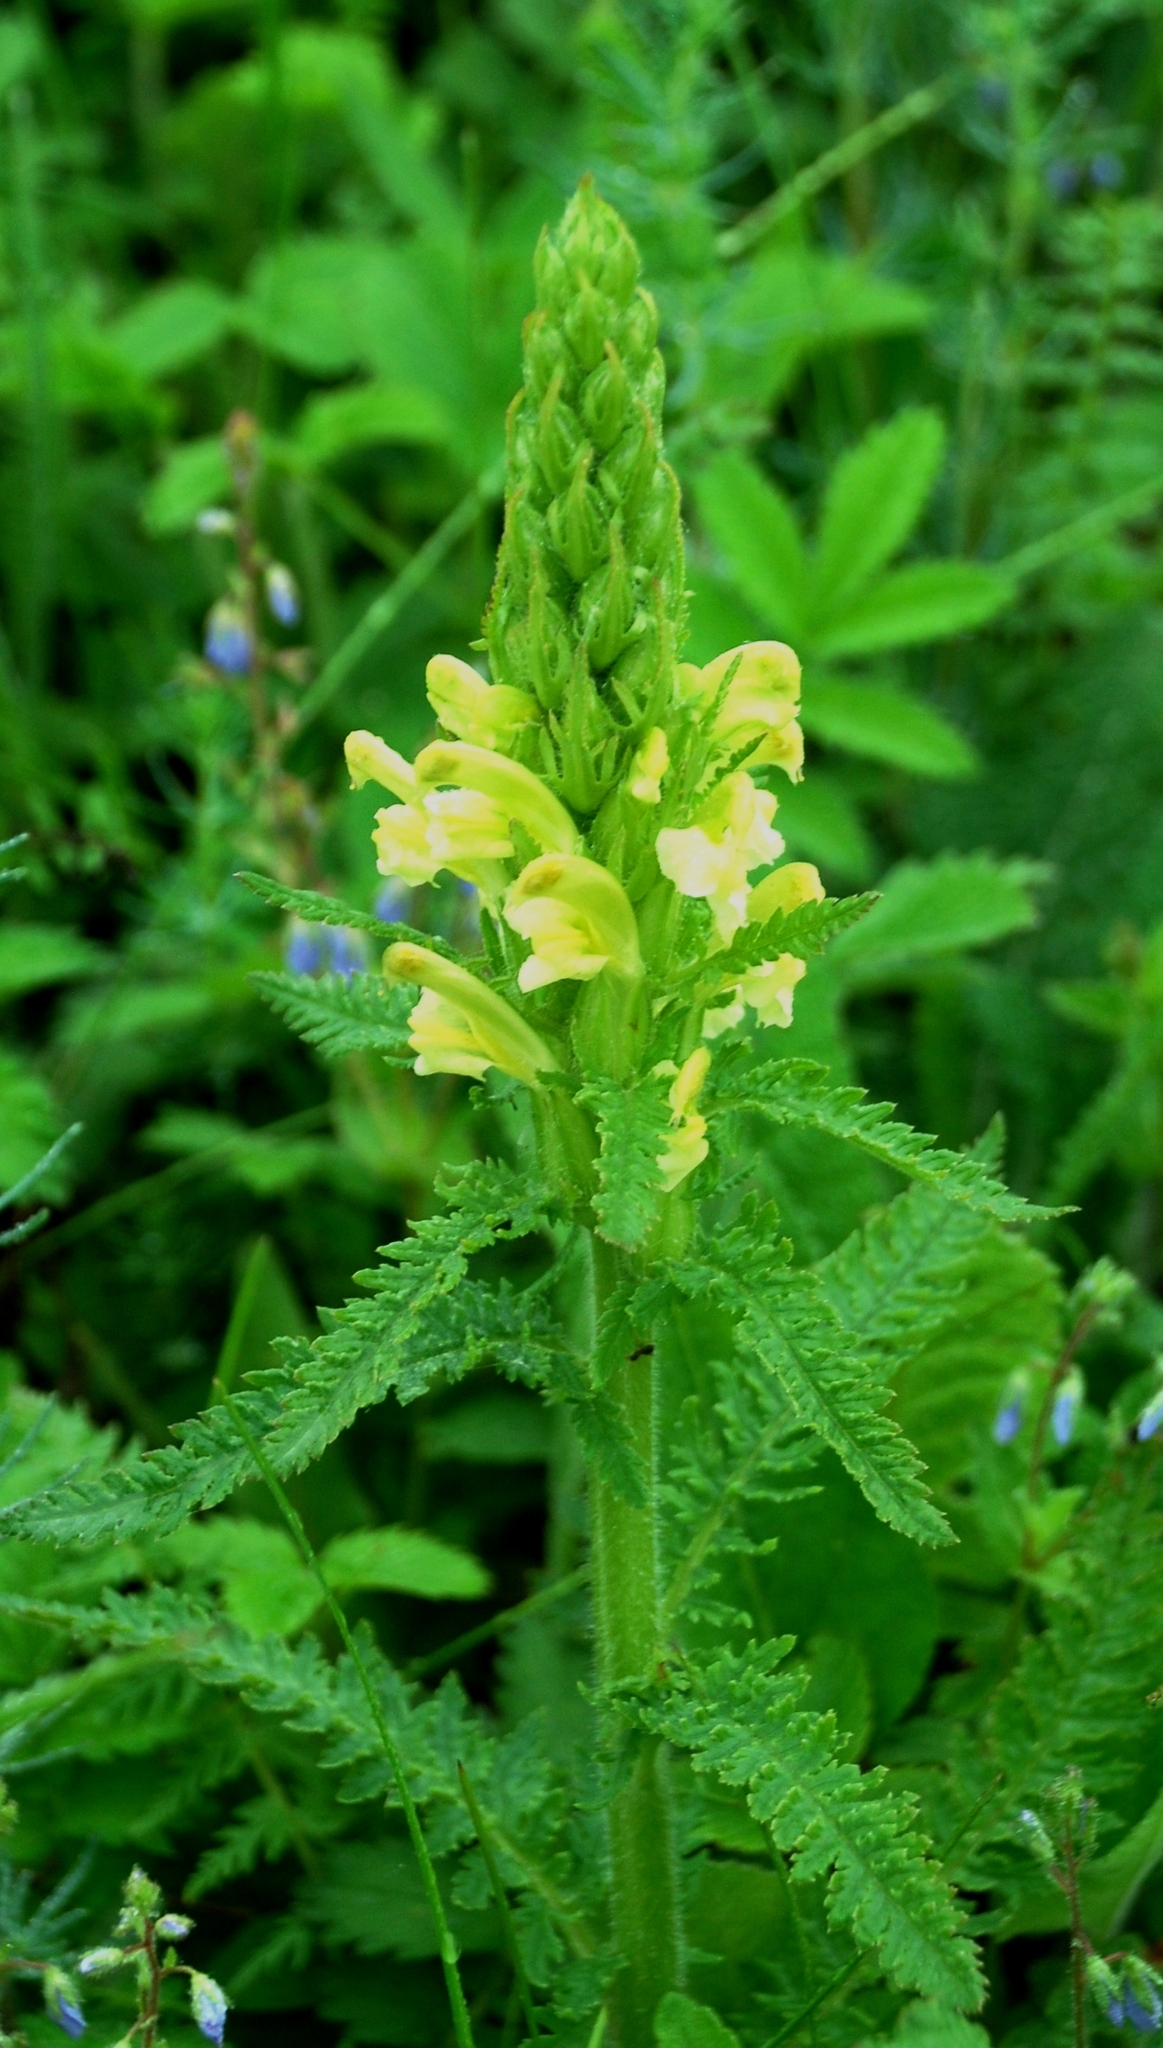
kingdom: Plantae
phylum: Tracheophyta
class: Magnoliopsida
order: Lamiales
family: Orobanchaceae
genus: Pedicularis
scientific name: Pedicularis kaufmannii
